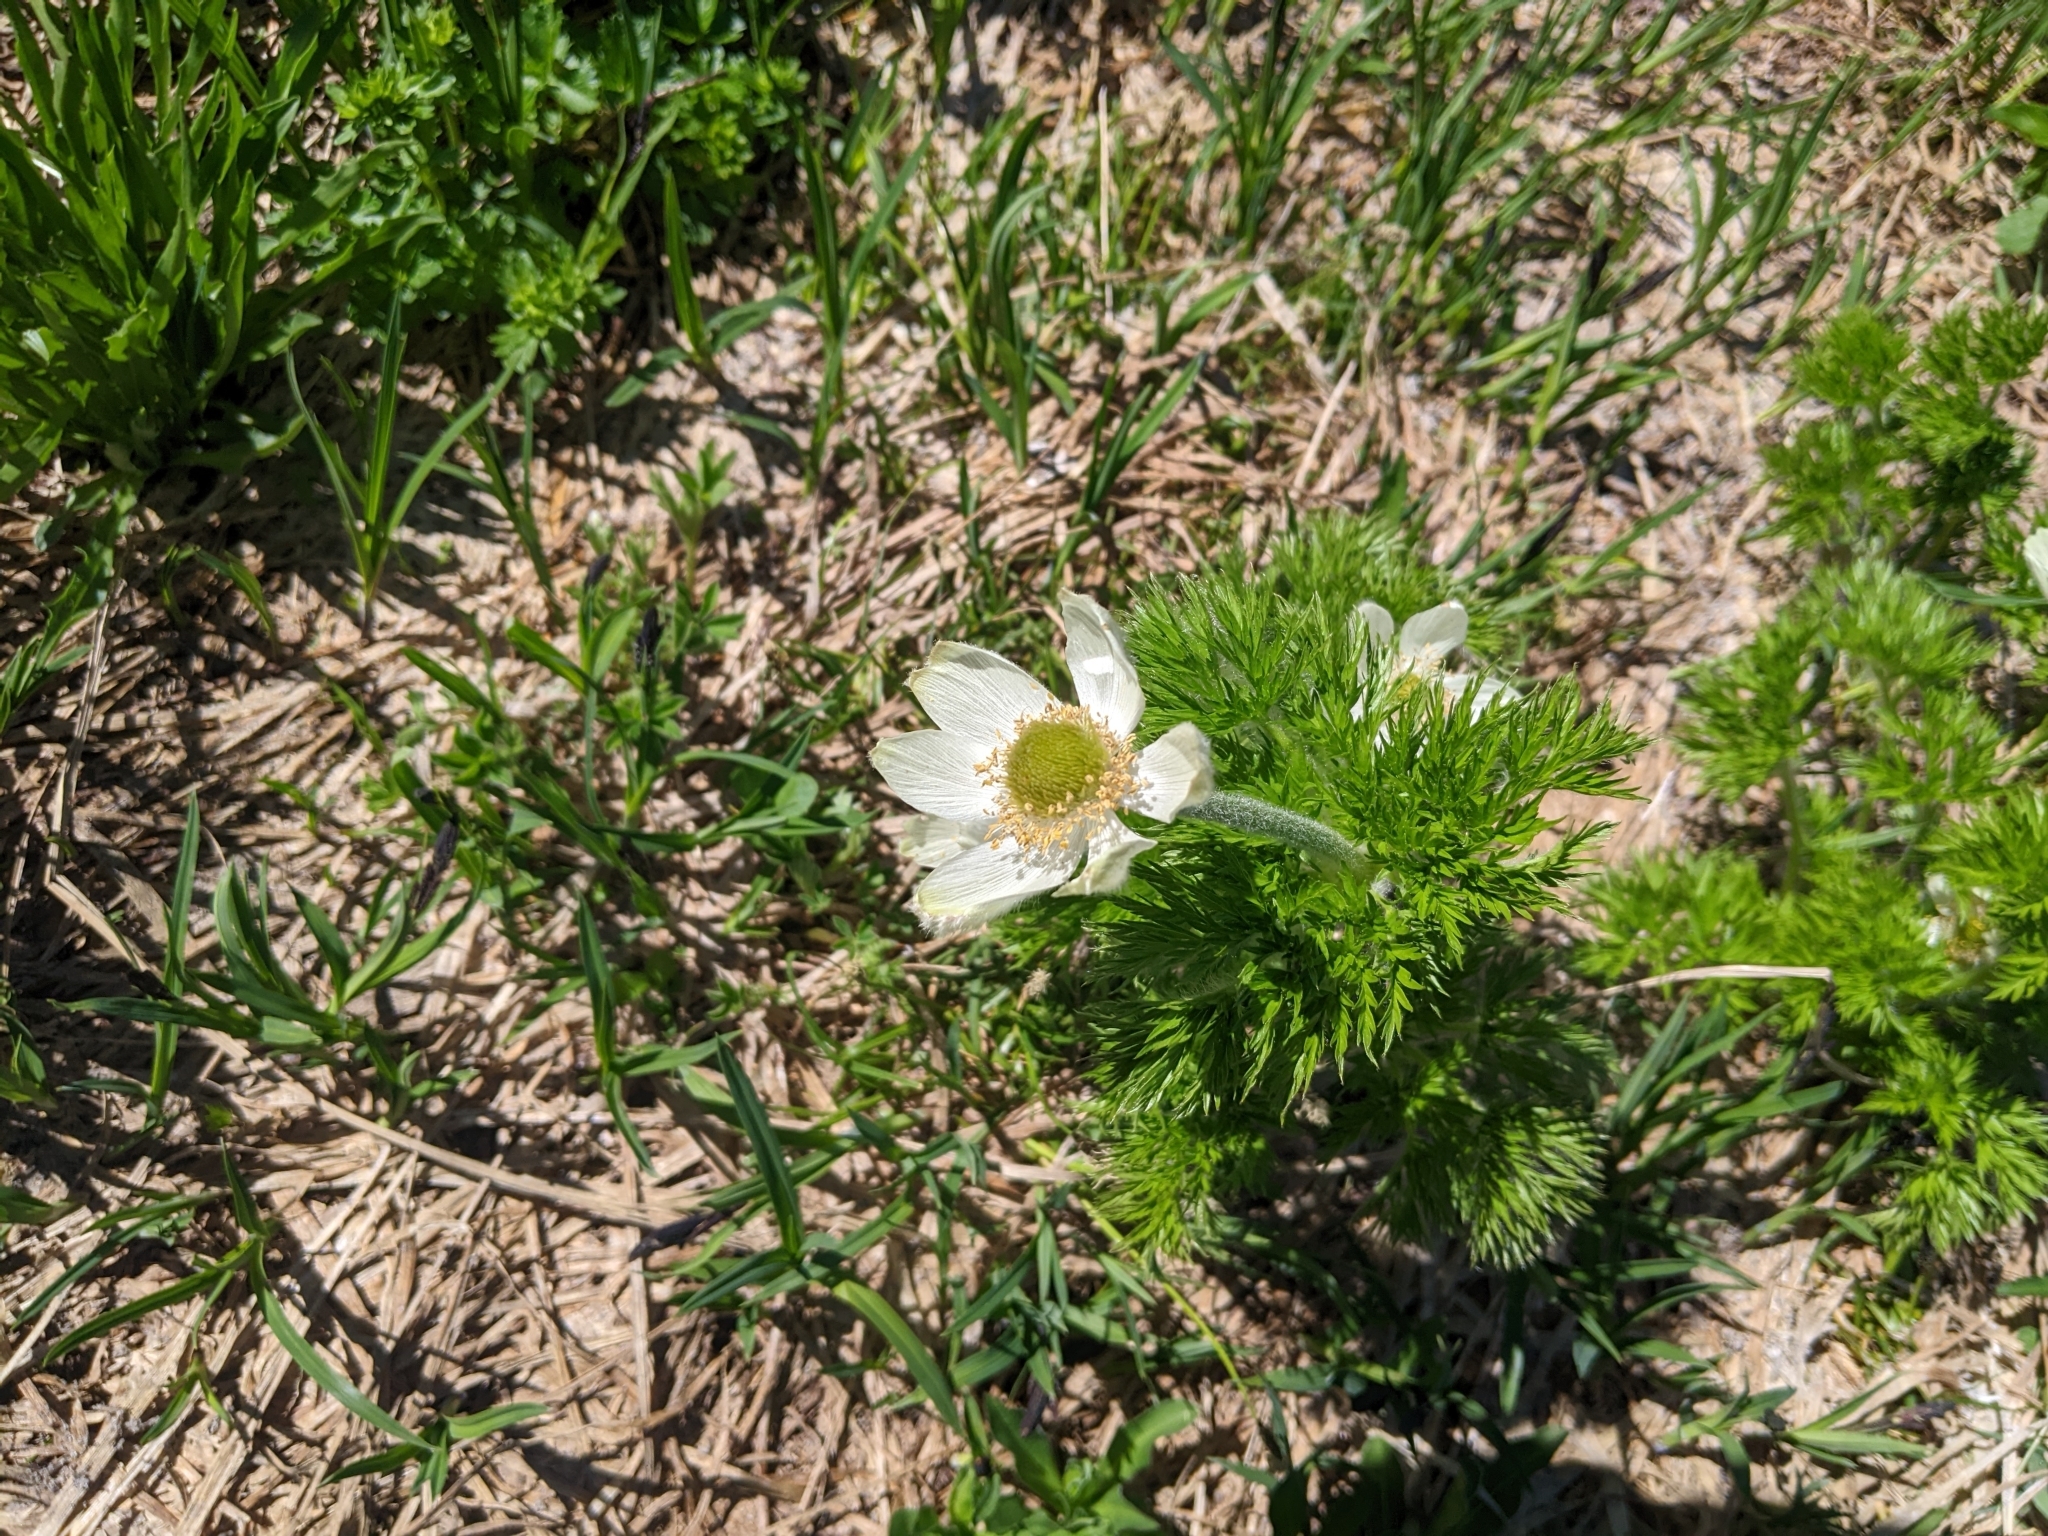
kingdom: Plantae
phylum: Tracheophyta
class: Magnoliopsida
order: Ranunculales
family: Ranunculaceae
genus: Pulsatilla
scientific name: Pulsatilla occidentalis
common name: Mountain pasqueflower
